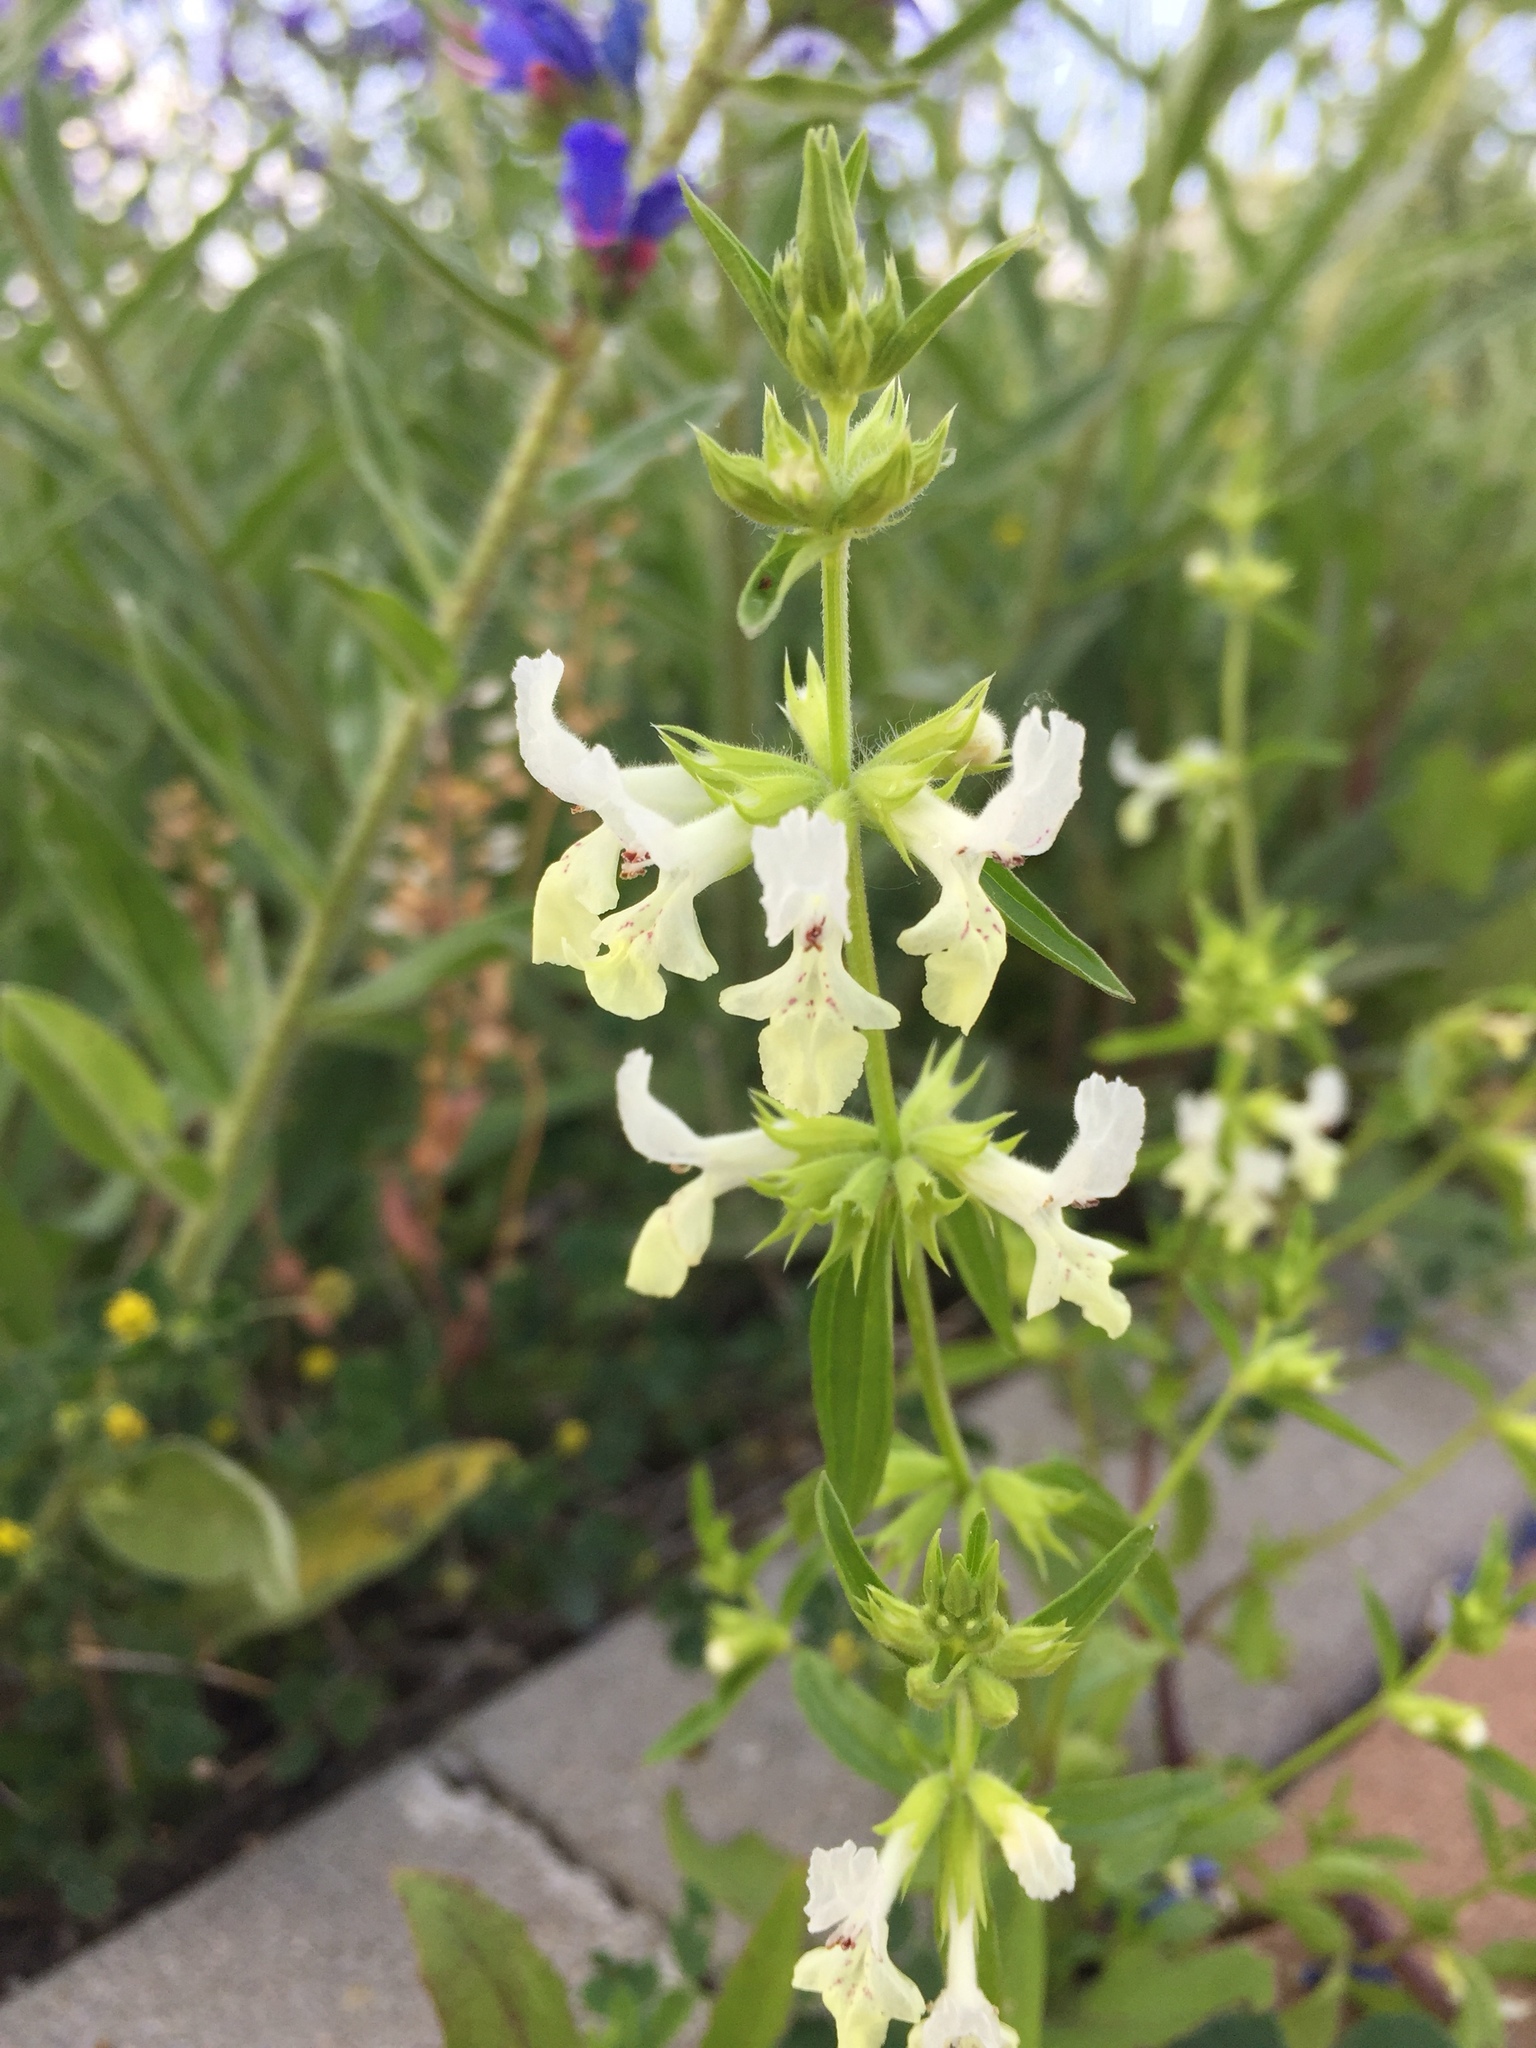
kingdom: Plantae
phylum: Tracheophyta
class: Magnoliopsida
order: Lamiales
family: Lamiaceae
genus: Stachys
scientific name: Stachys annua
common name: Annual yellow-woundwort
